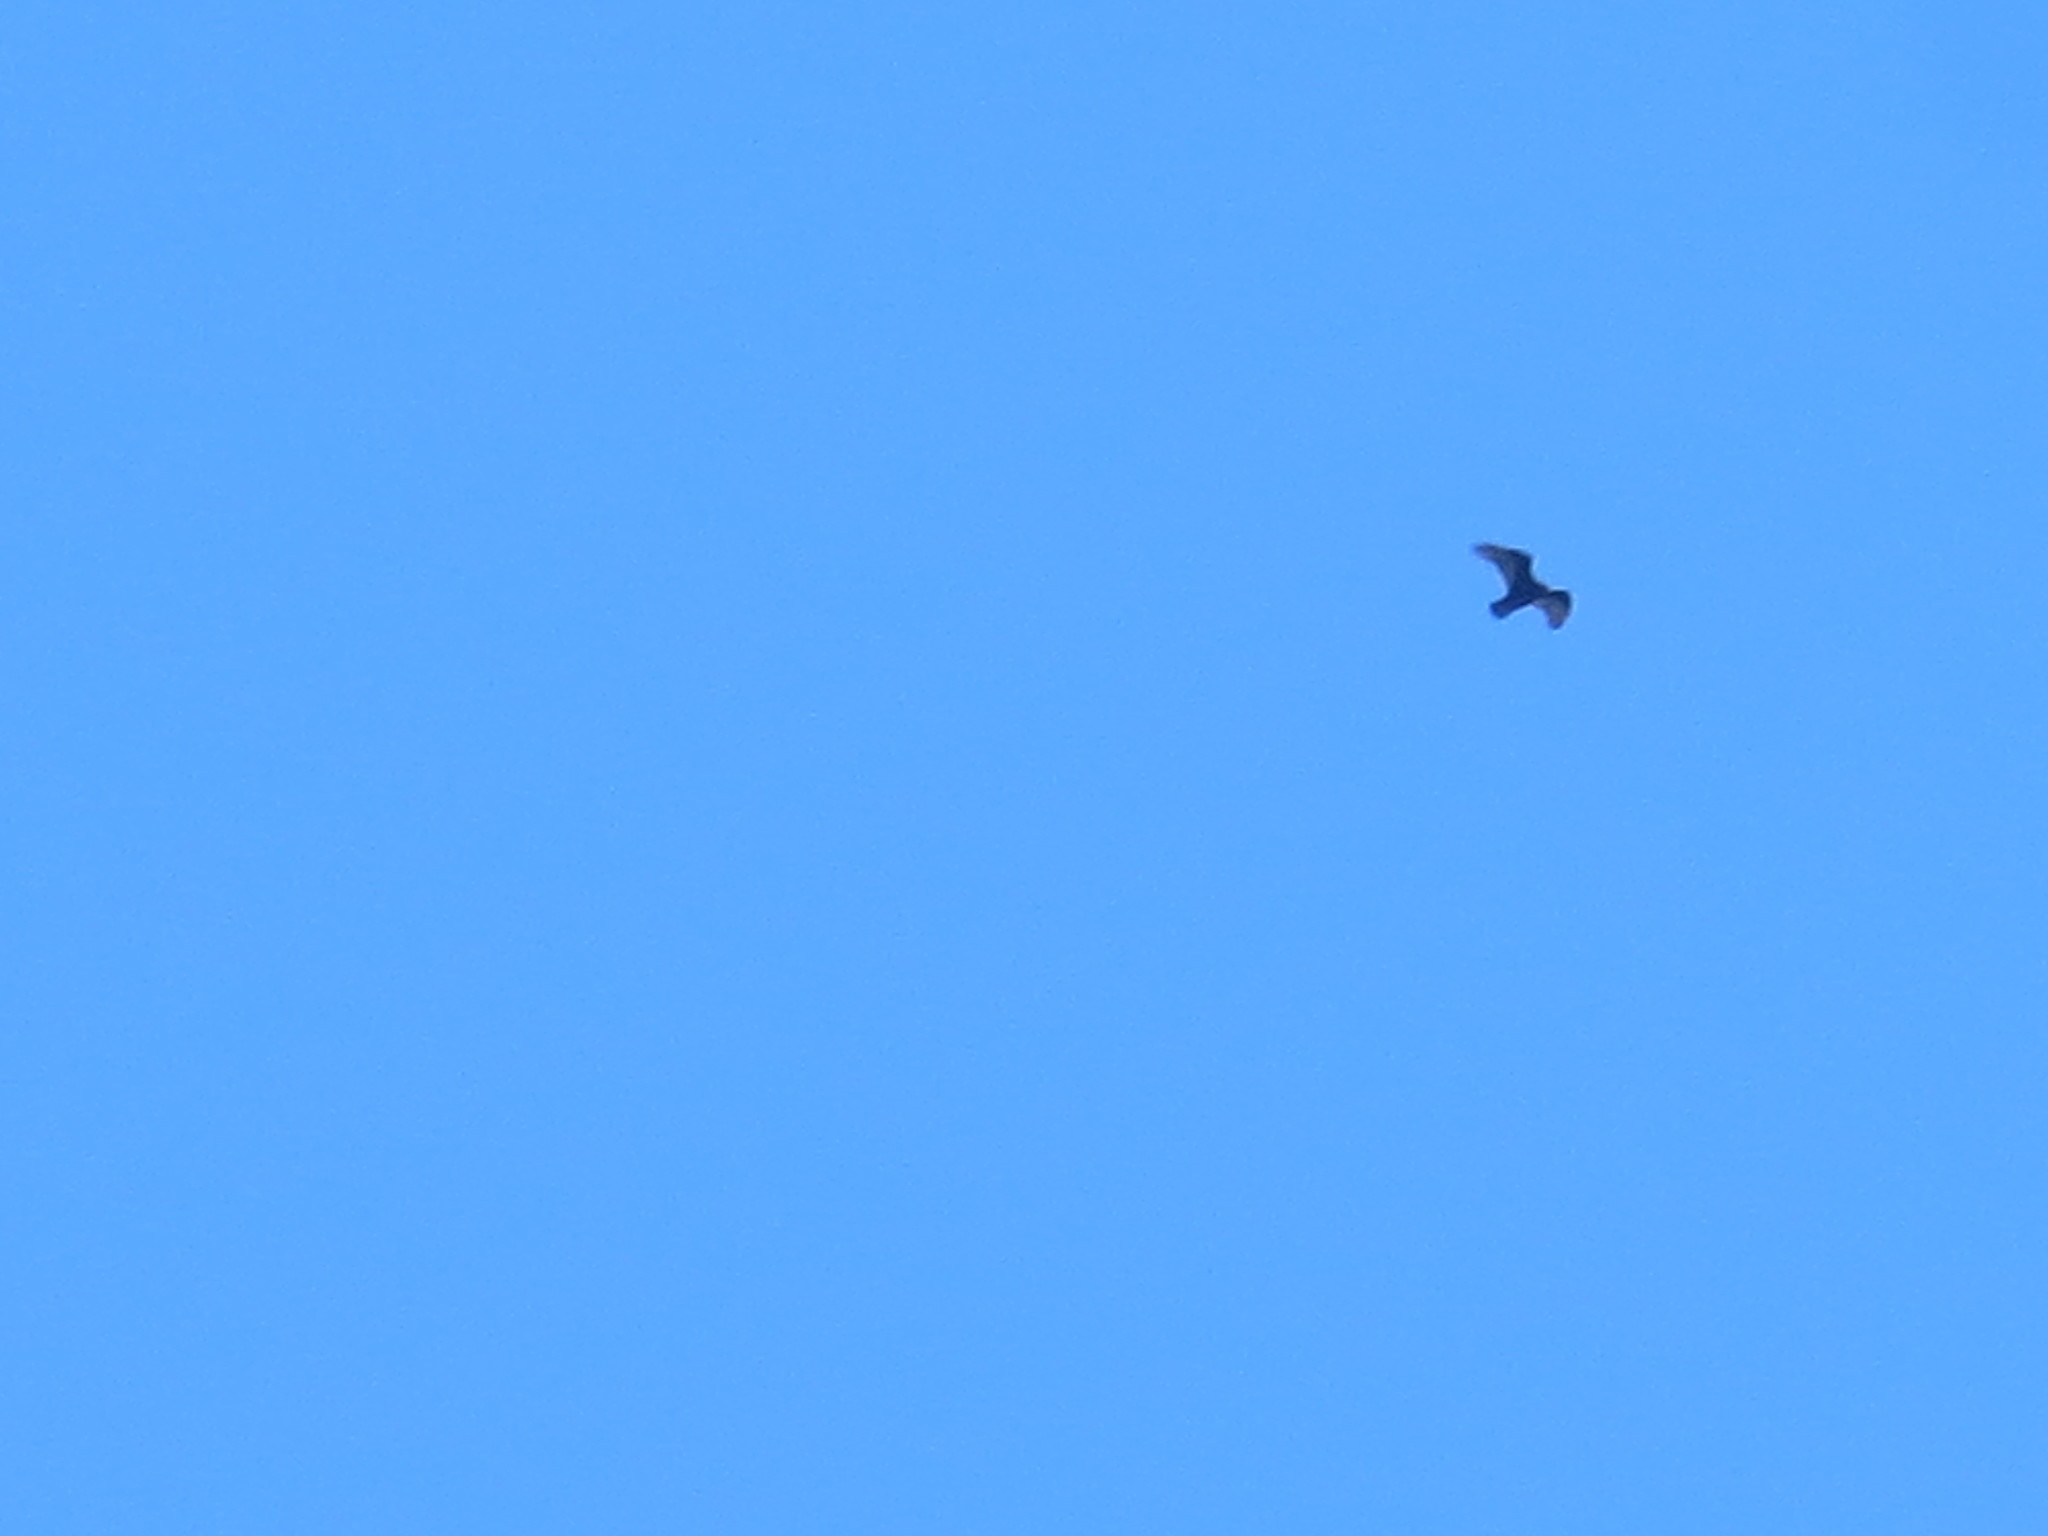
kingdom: Animalia
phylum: Chordata
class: Aves
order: Accipitriformes
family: Cathartidae
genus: Cathartes
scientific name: Cathartes aura
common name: Turkey vulture
